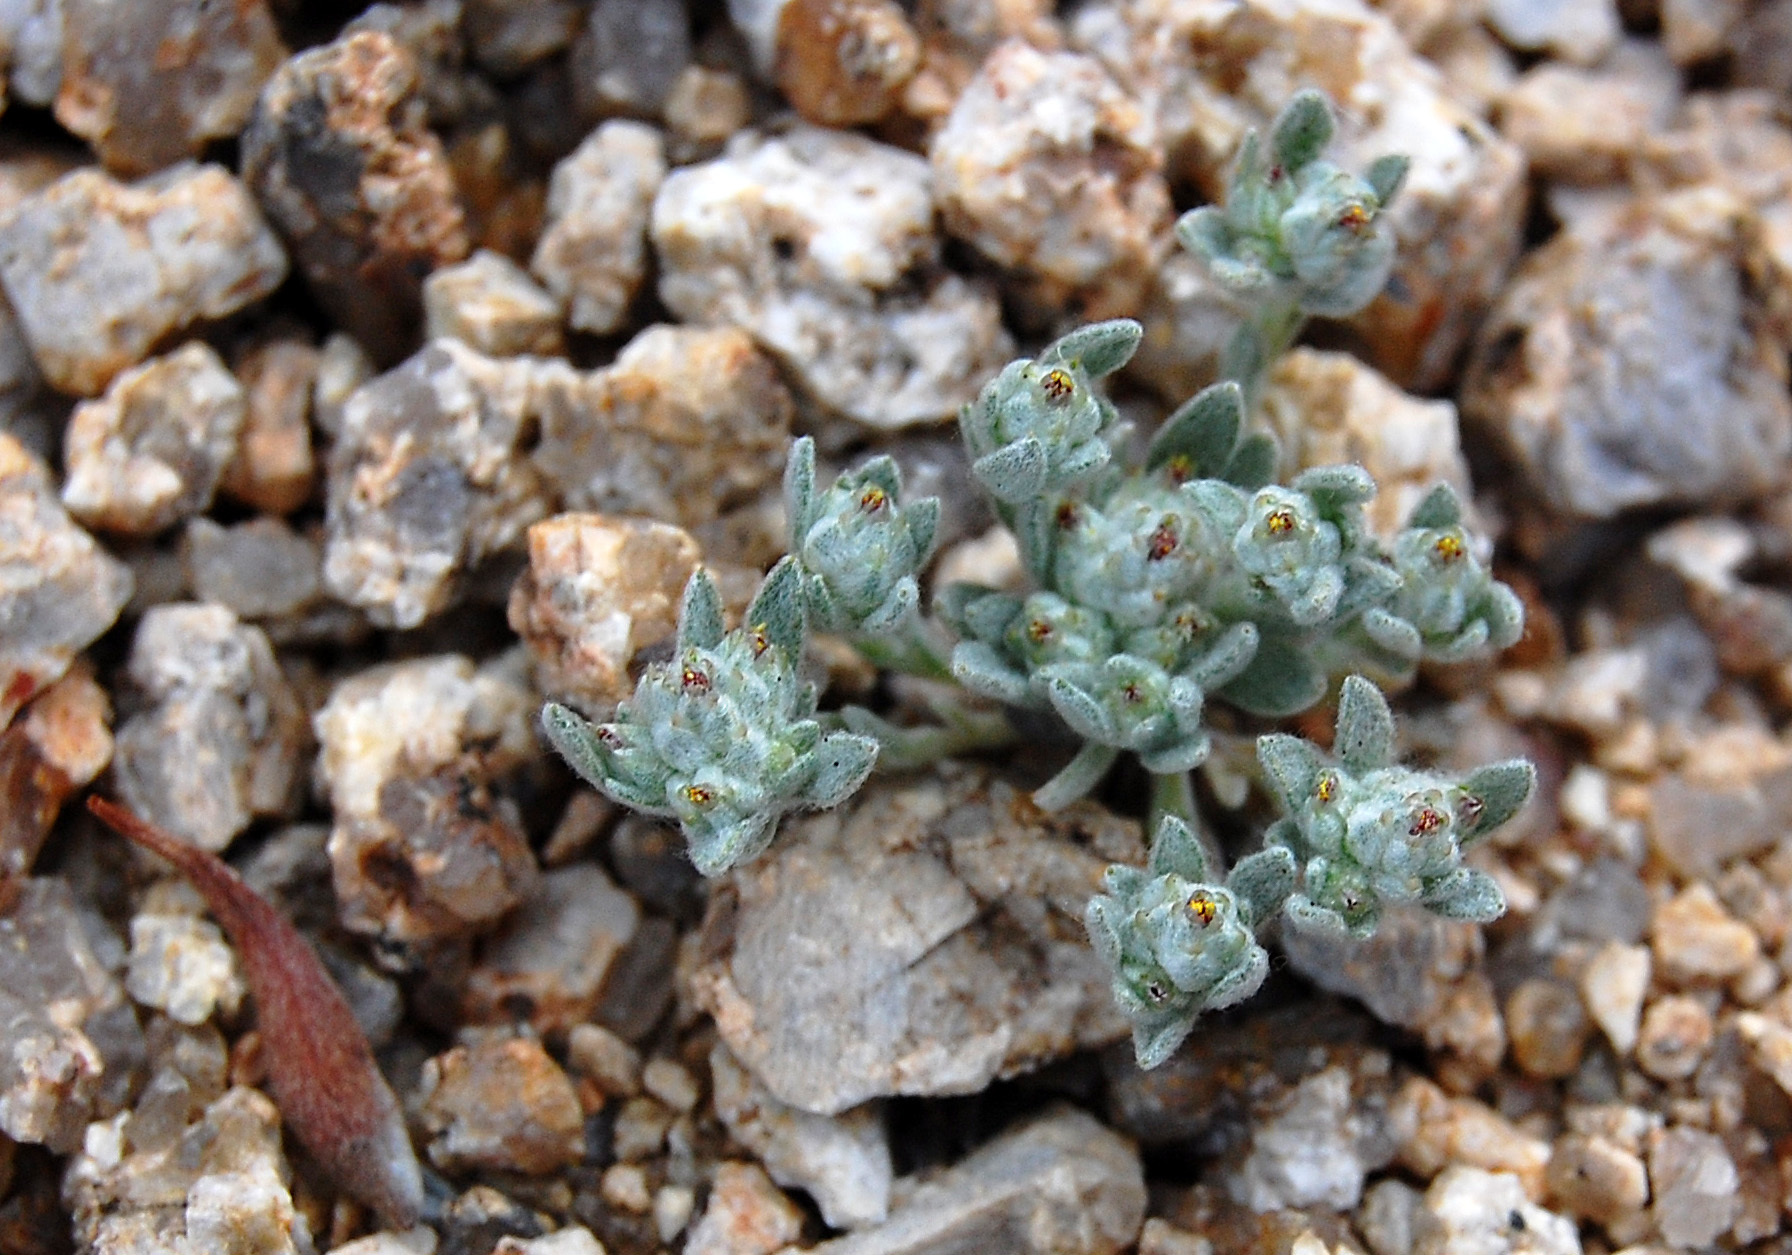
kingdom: Plantae
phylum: Tracheophyta
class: Magnoliopsida
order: Asterales
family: Asteraceae
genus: Logfia
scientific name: Logfia depressa
